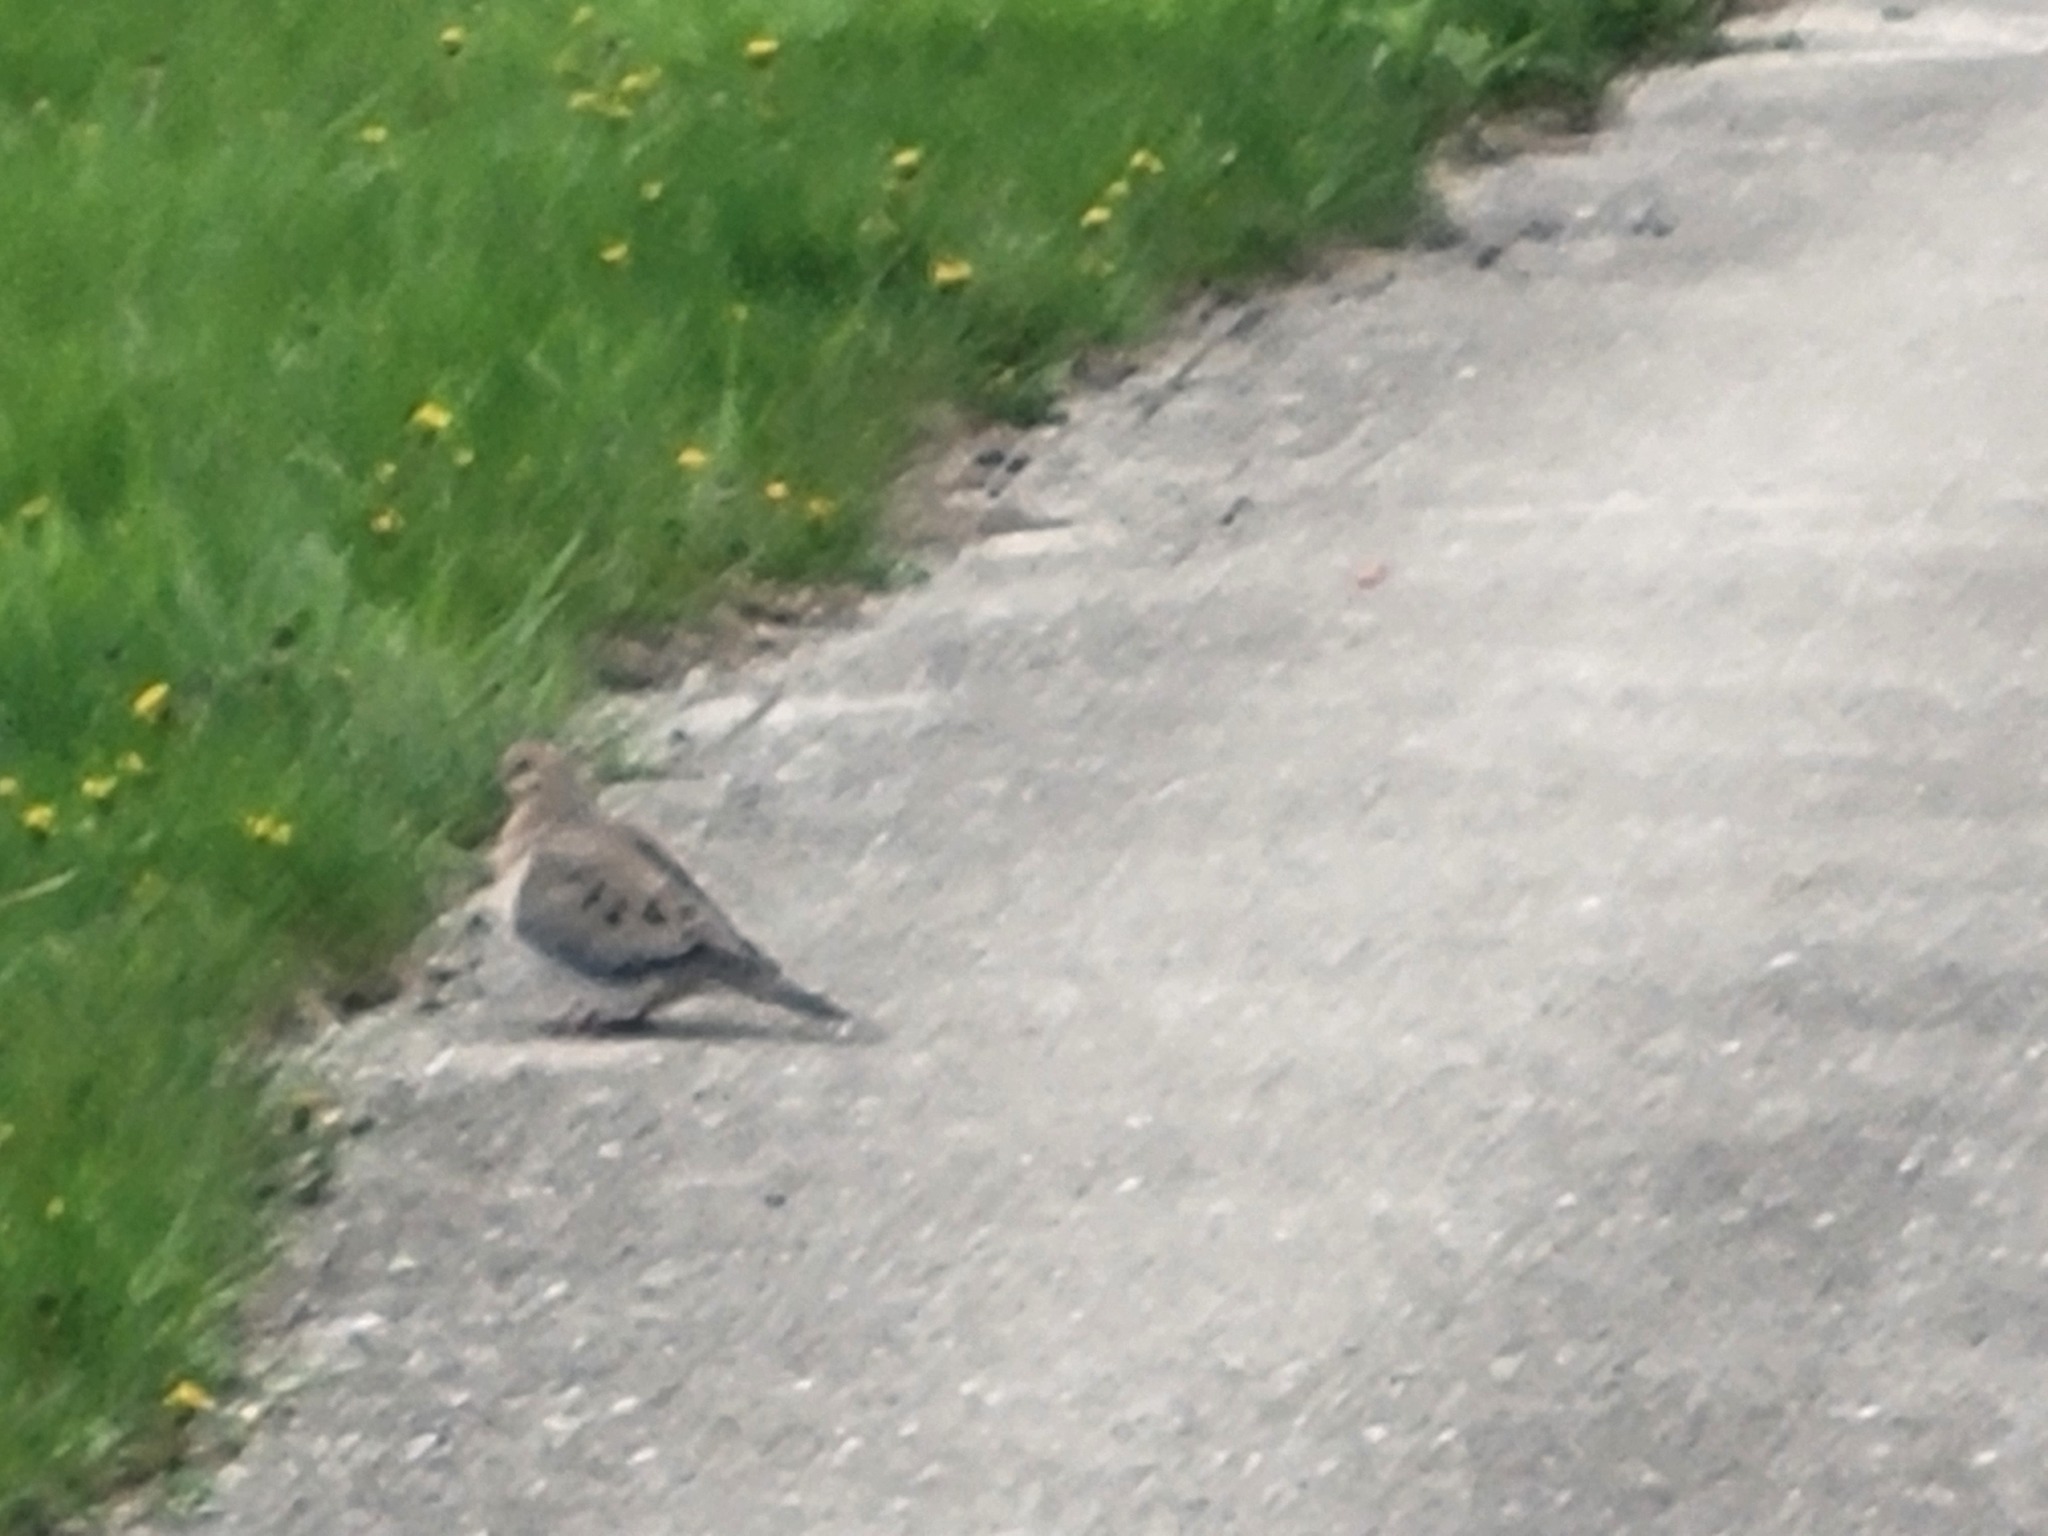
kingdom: Animalia
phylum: Chordata
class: Aves
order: Columbiformes
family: Columbidae
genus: Zenaida
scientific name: Zenaida macroura
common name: Mourning dove
